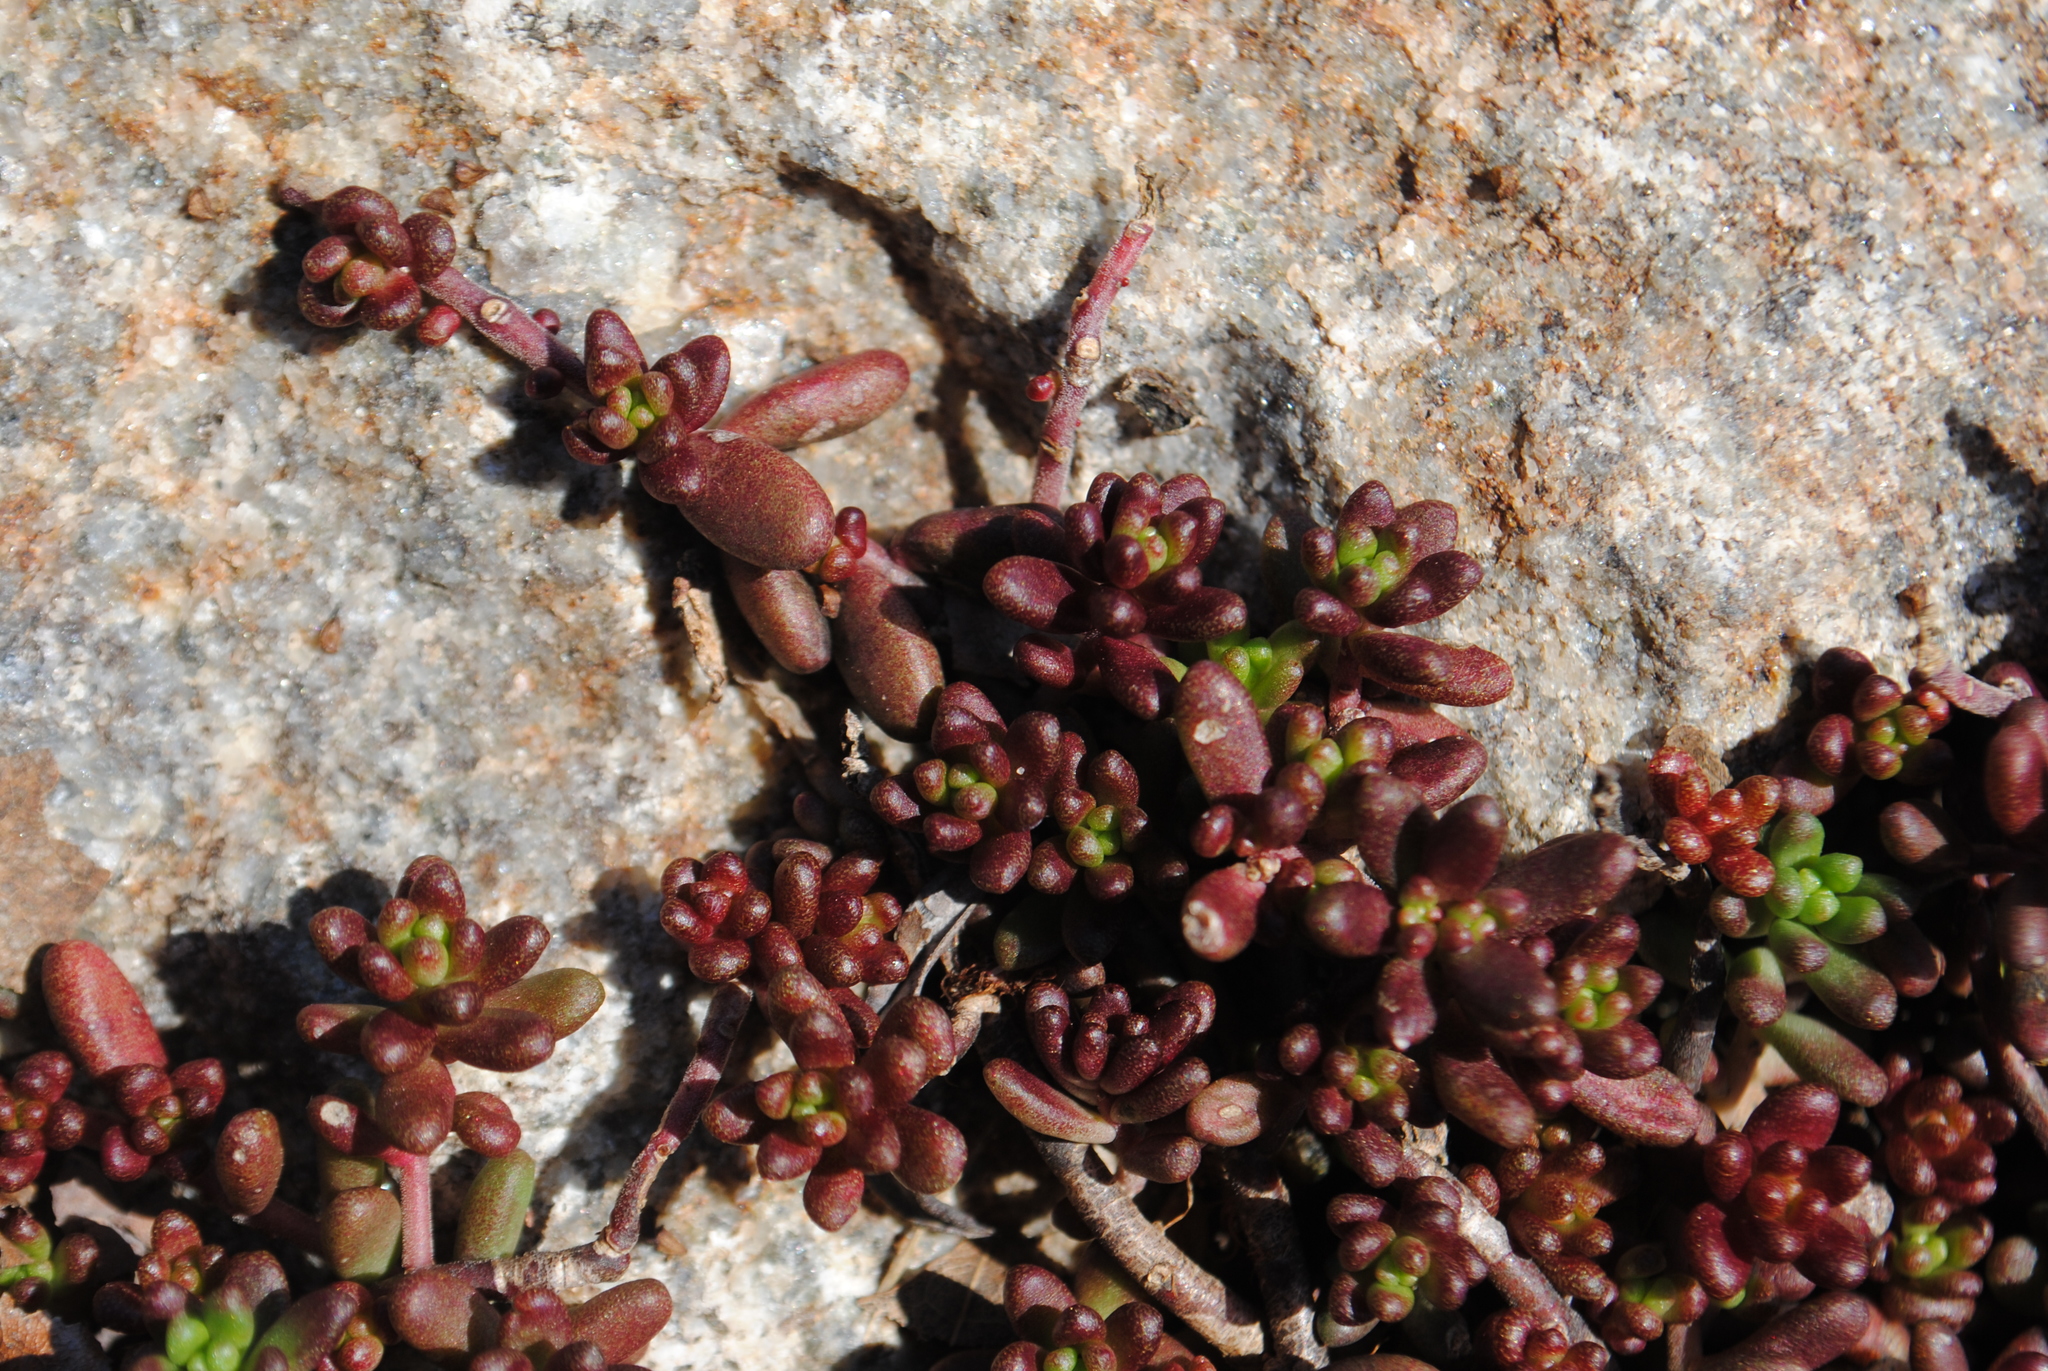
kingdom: Plantae
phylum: Tracheophyta
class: Magnoliopsida
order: Saxifragales
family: Crassulaceae
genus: Sedum
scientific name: Sedum album
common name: White stonecrop
